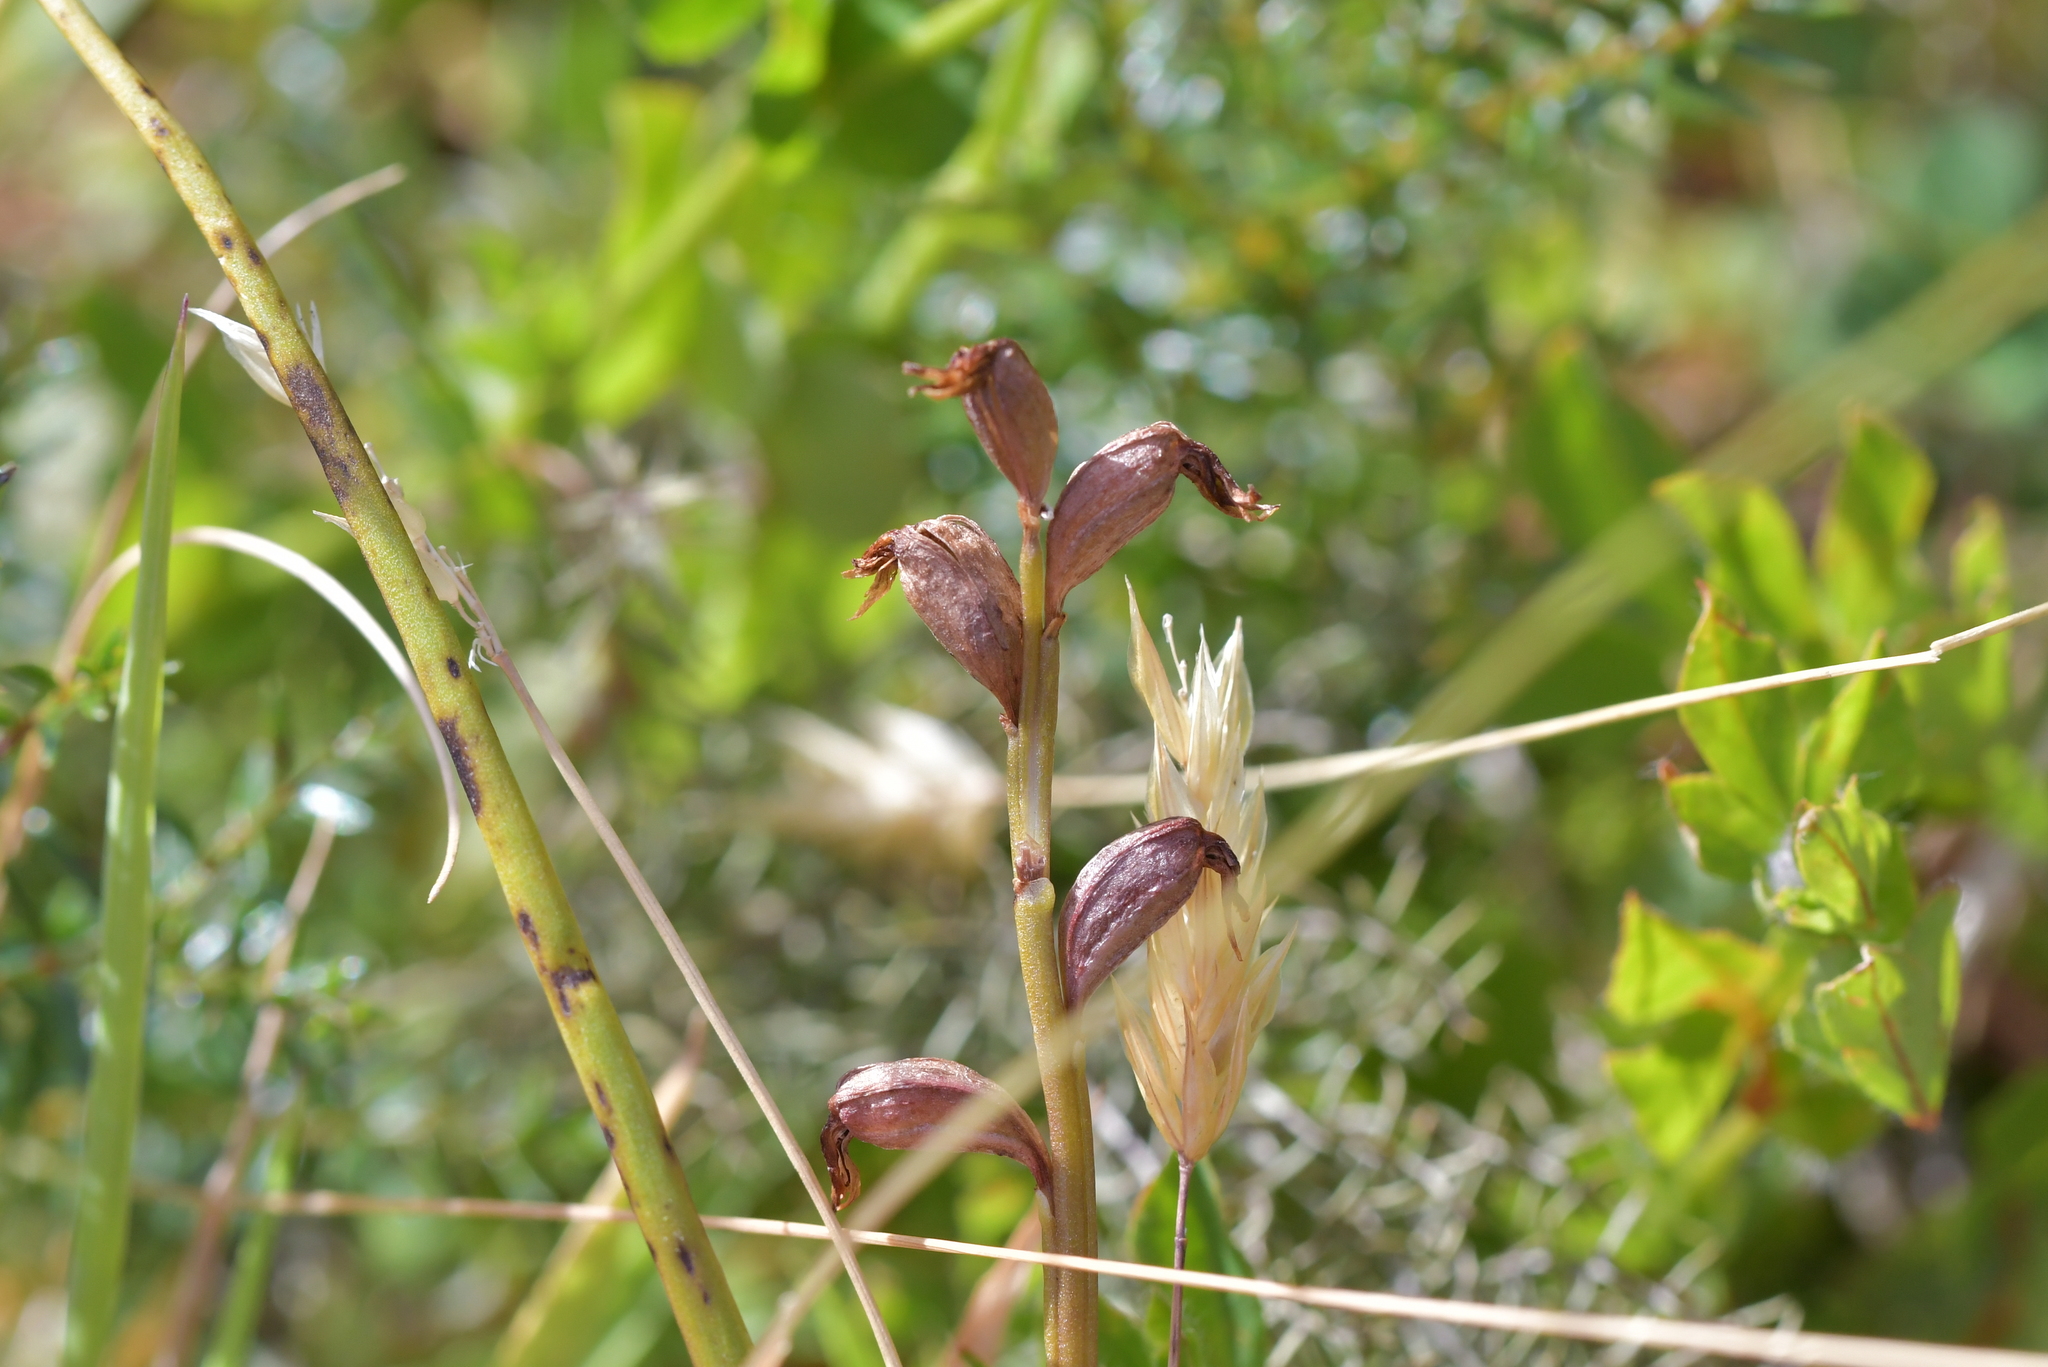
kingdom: Plantae
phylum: Tracheophyta
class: Liliopsida
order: Asparagales
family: Orchidaceae
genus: Prasophyllum
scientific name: Prasophyllum colensoi
